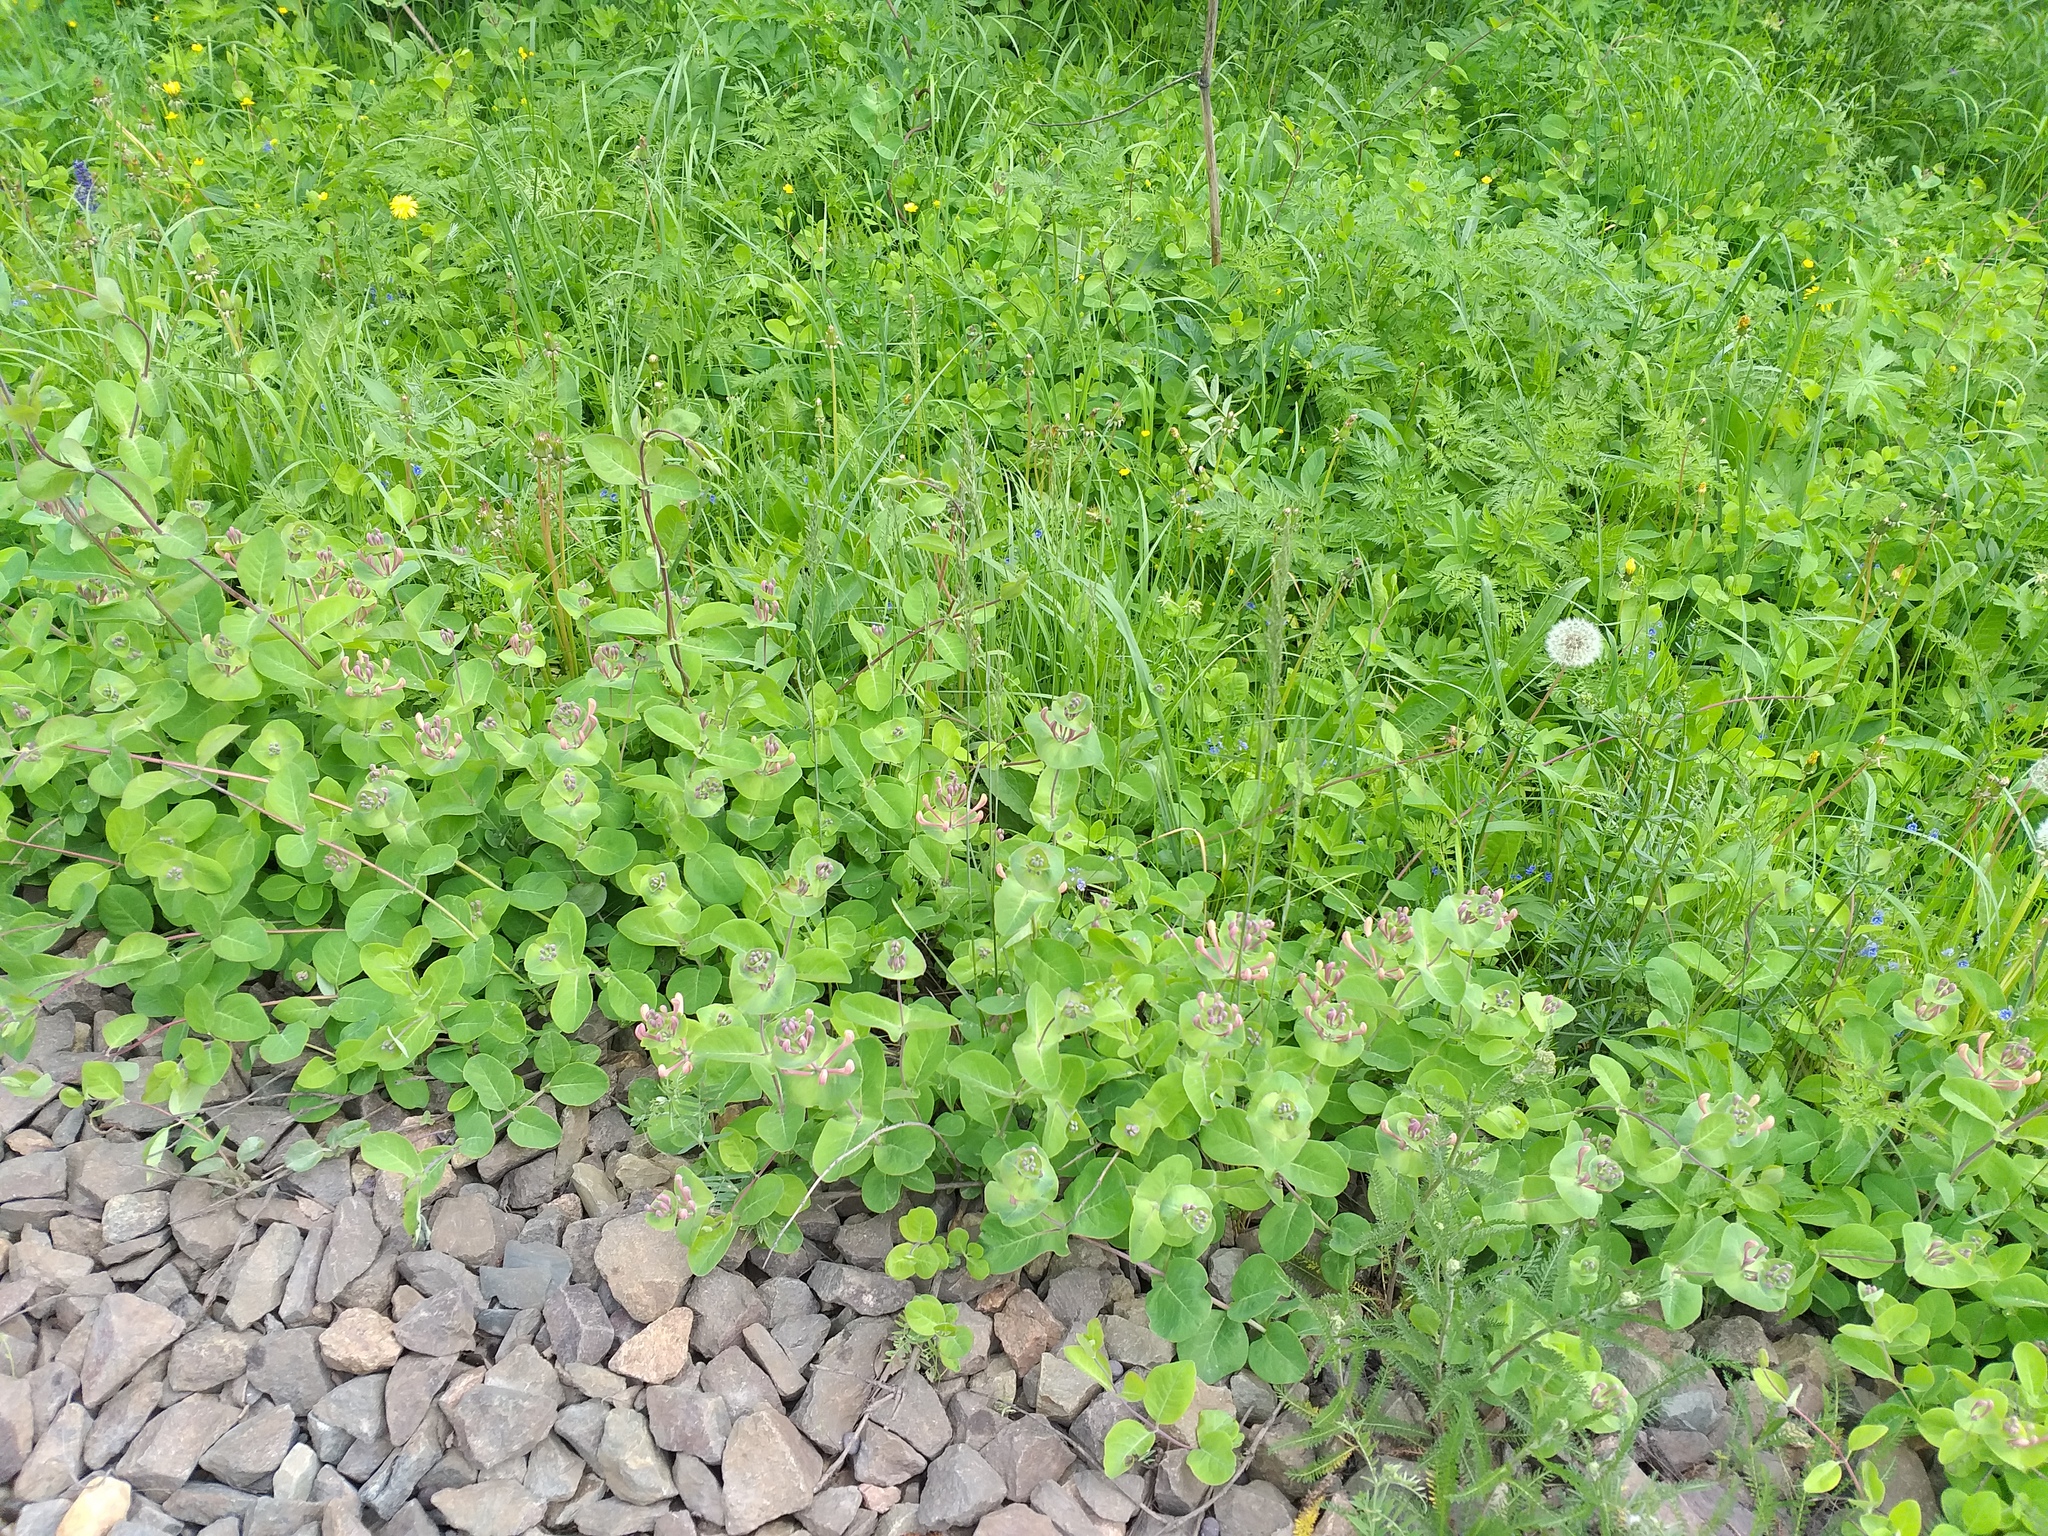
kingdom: Plantae
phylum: Tracheophyta
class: Magnoliopsida
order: Dipsacales
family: Caprifoliaceae
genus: Lonicera
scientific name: Lonicera caprifolium
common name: Perfoliate honeysuckle
